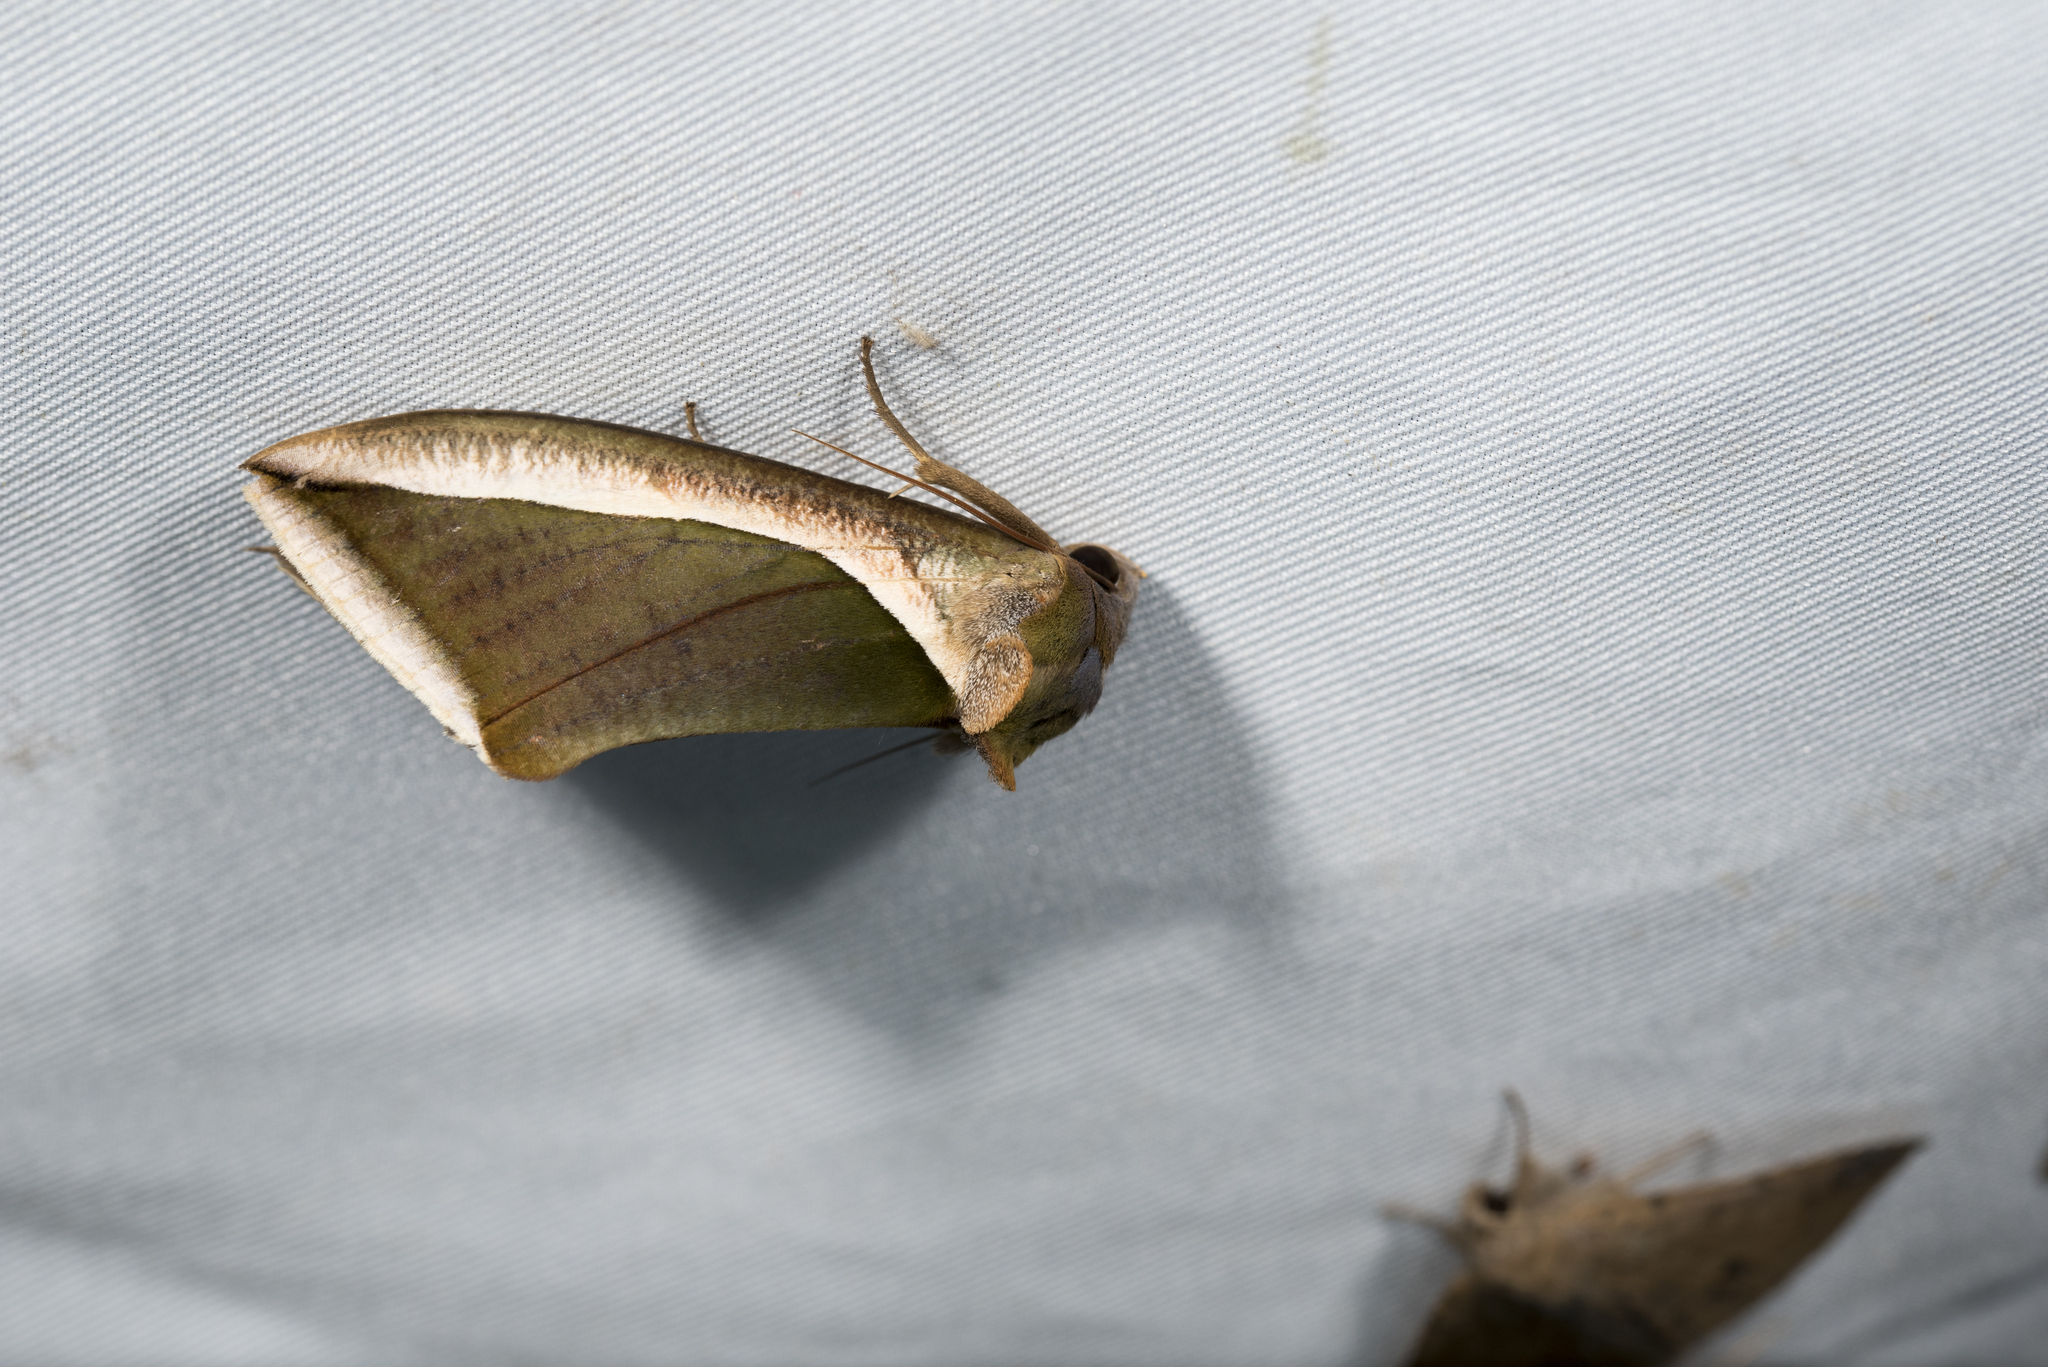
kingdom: Animalia
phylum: Arthropoda
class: Insecta
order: Lepidoptera
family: Erebidae
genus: Eudocima
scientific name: Eudocima salaminia
